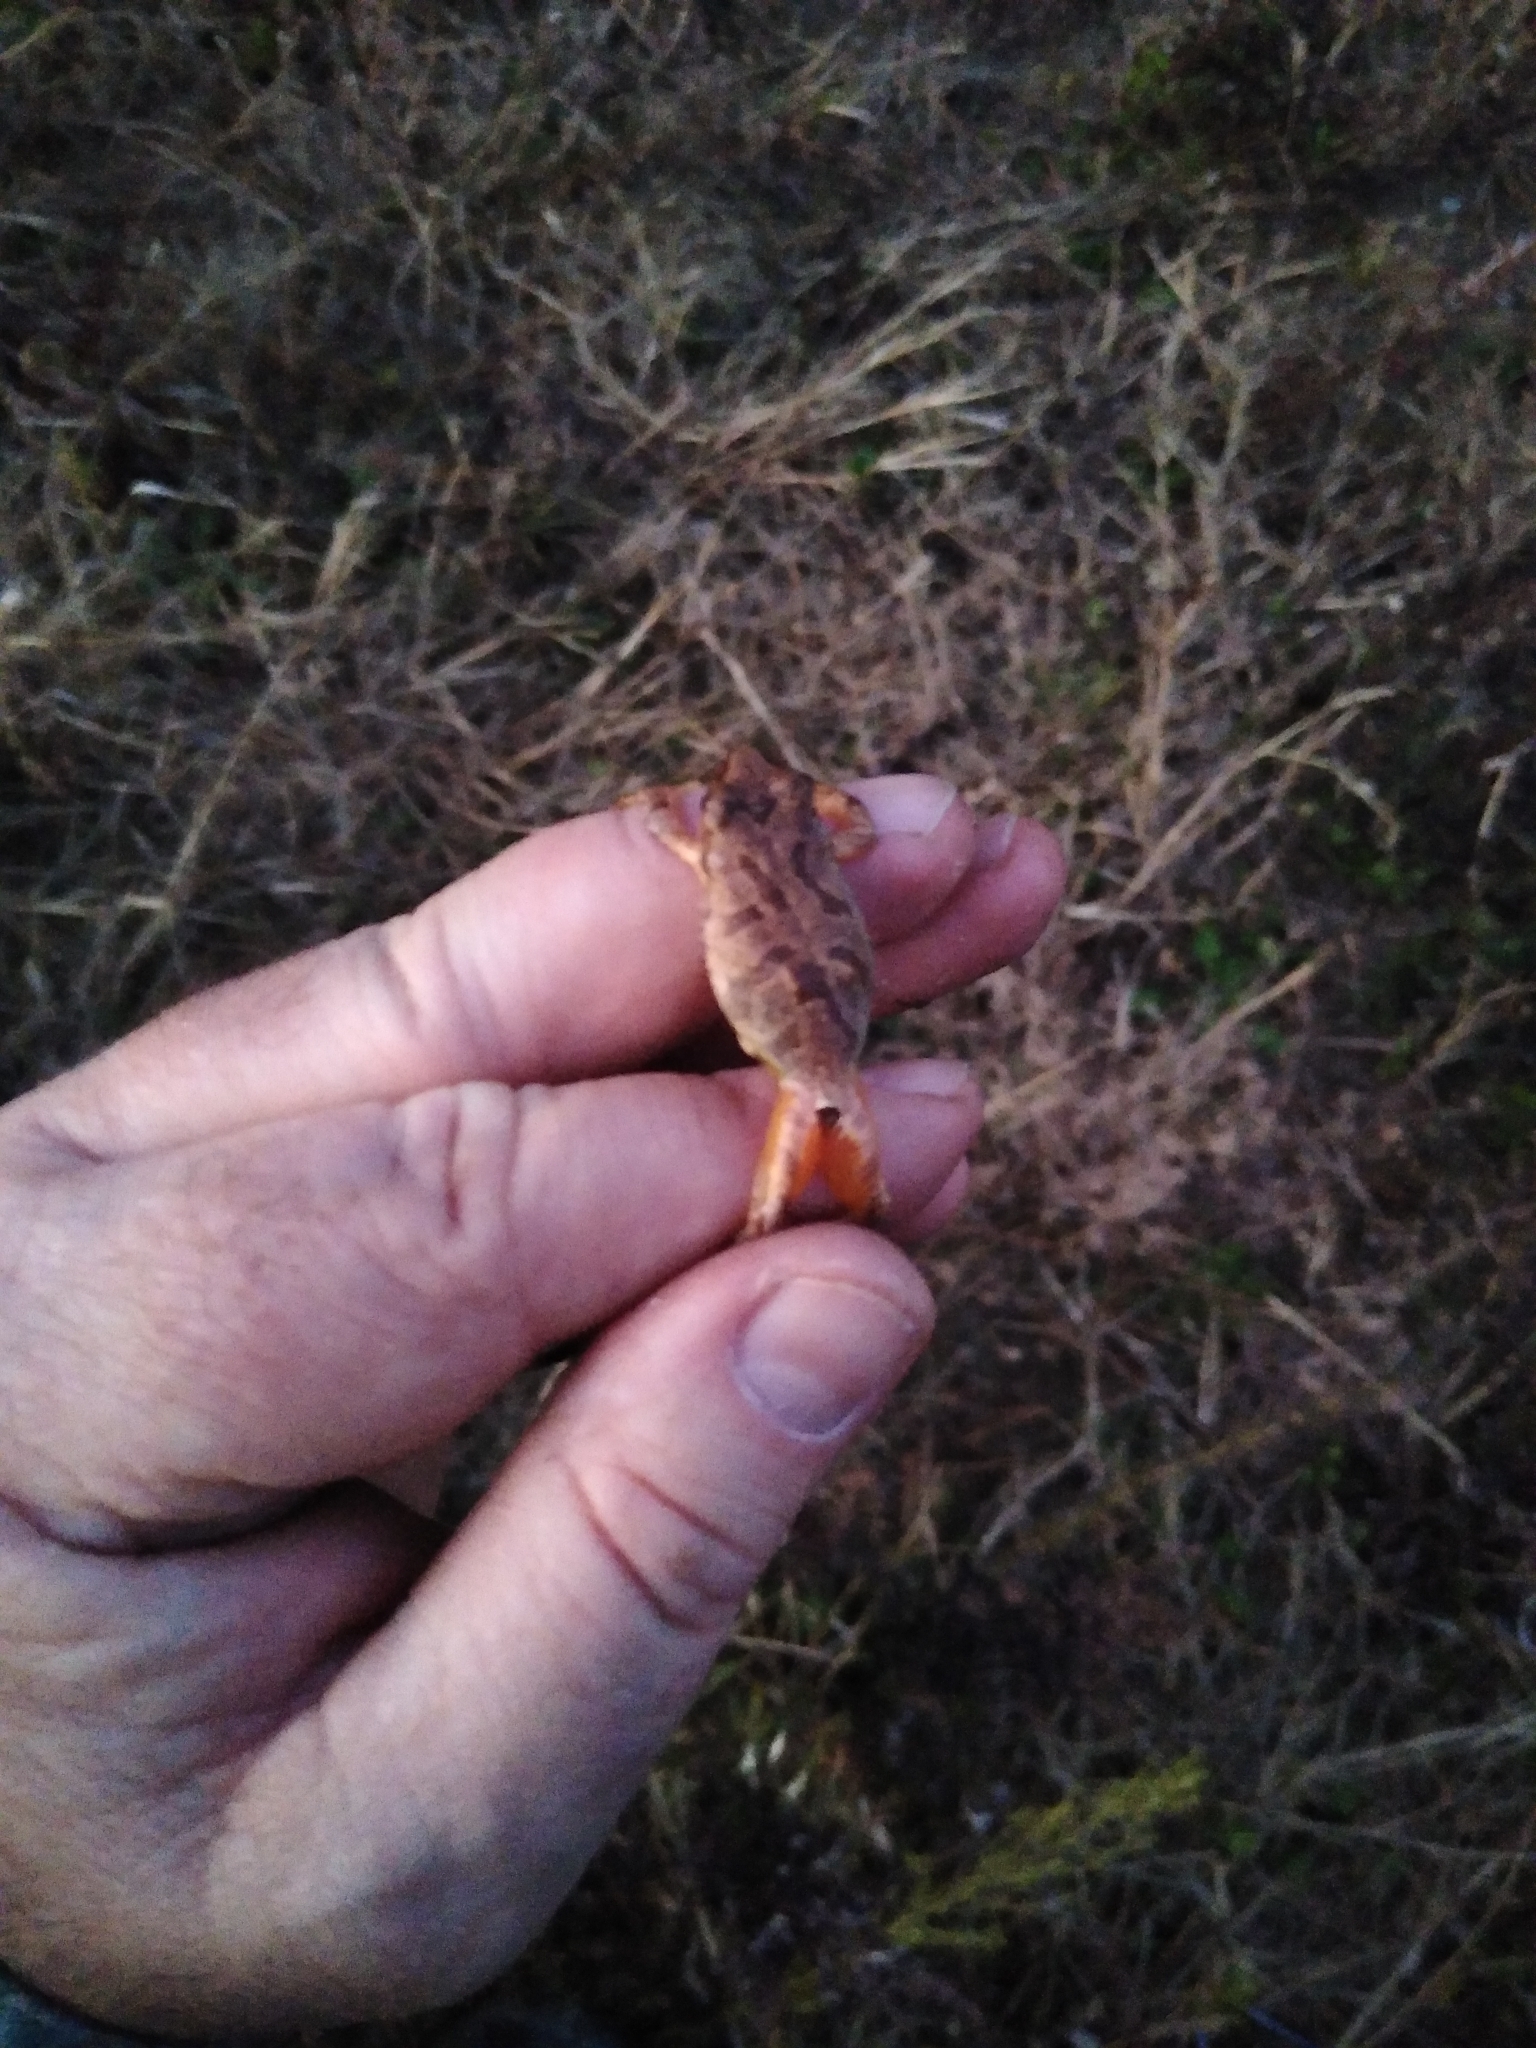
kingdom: Animalia
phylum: Chordata
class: Amphibia
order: Anura
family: Hylidae
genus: Pseudacris
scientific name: Pseudacris crucifer
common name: Spring peeper
